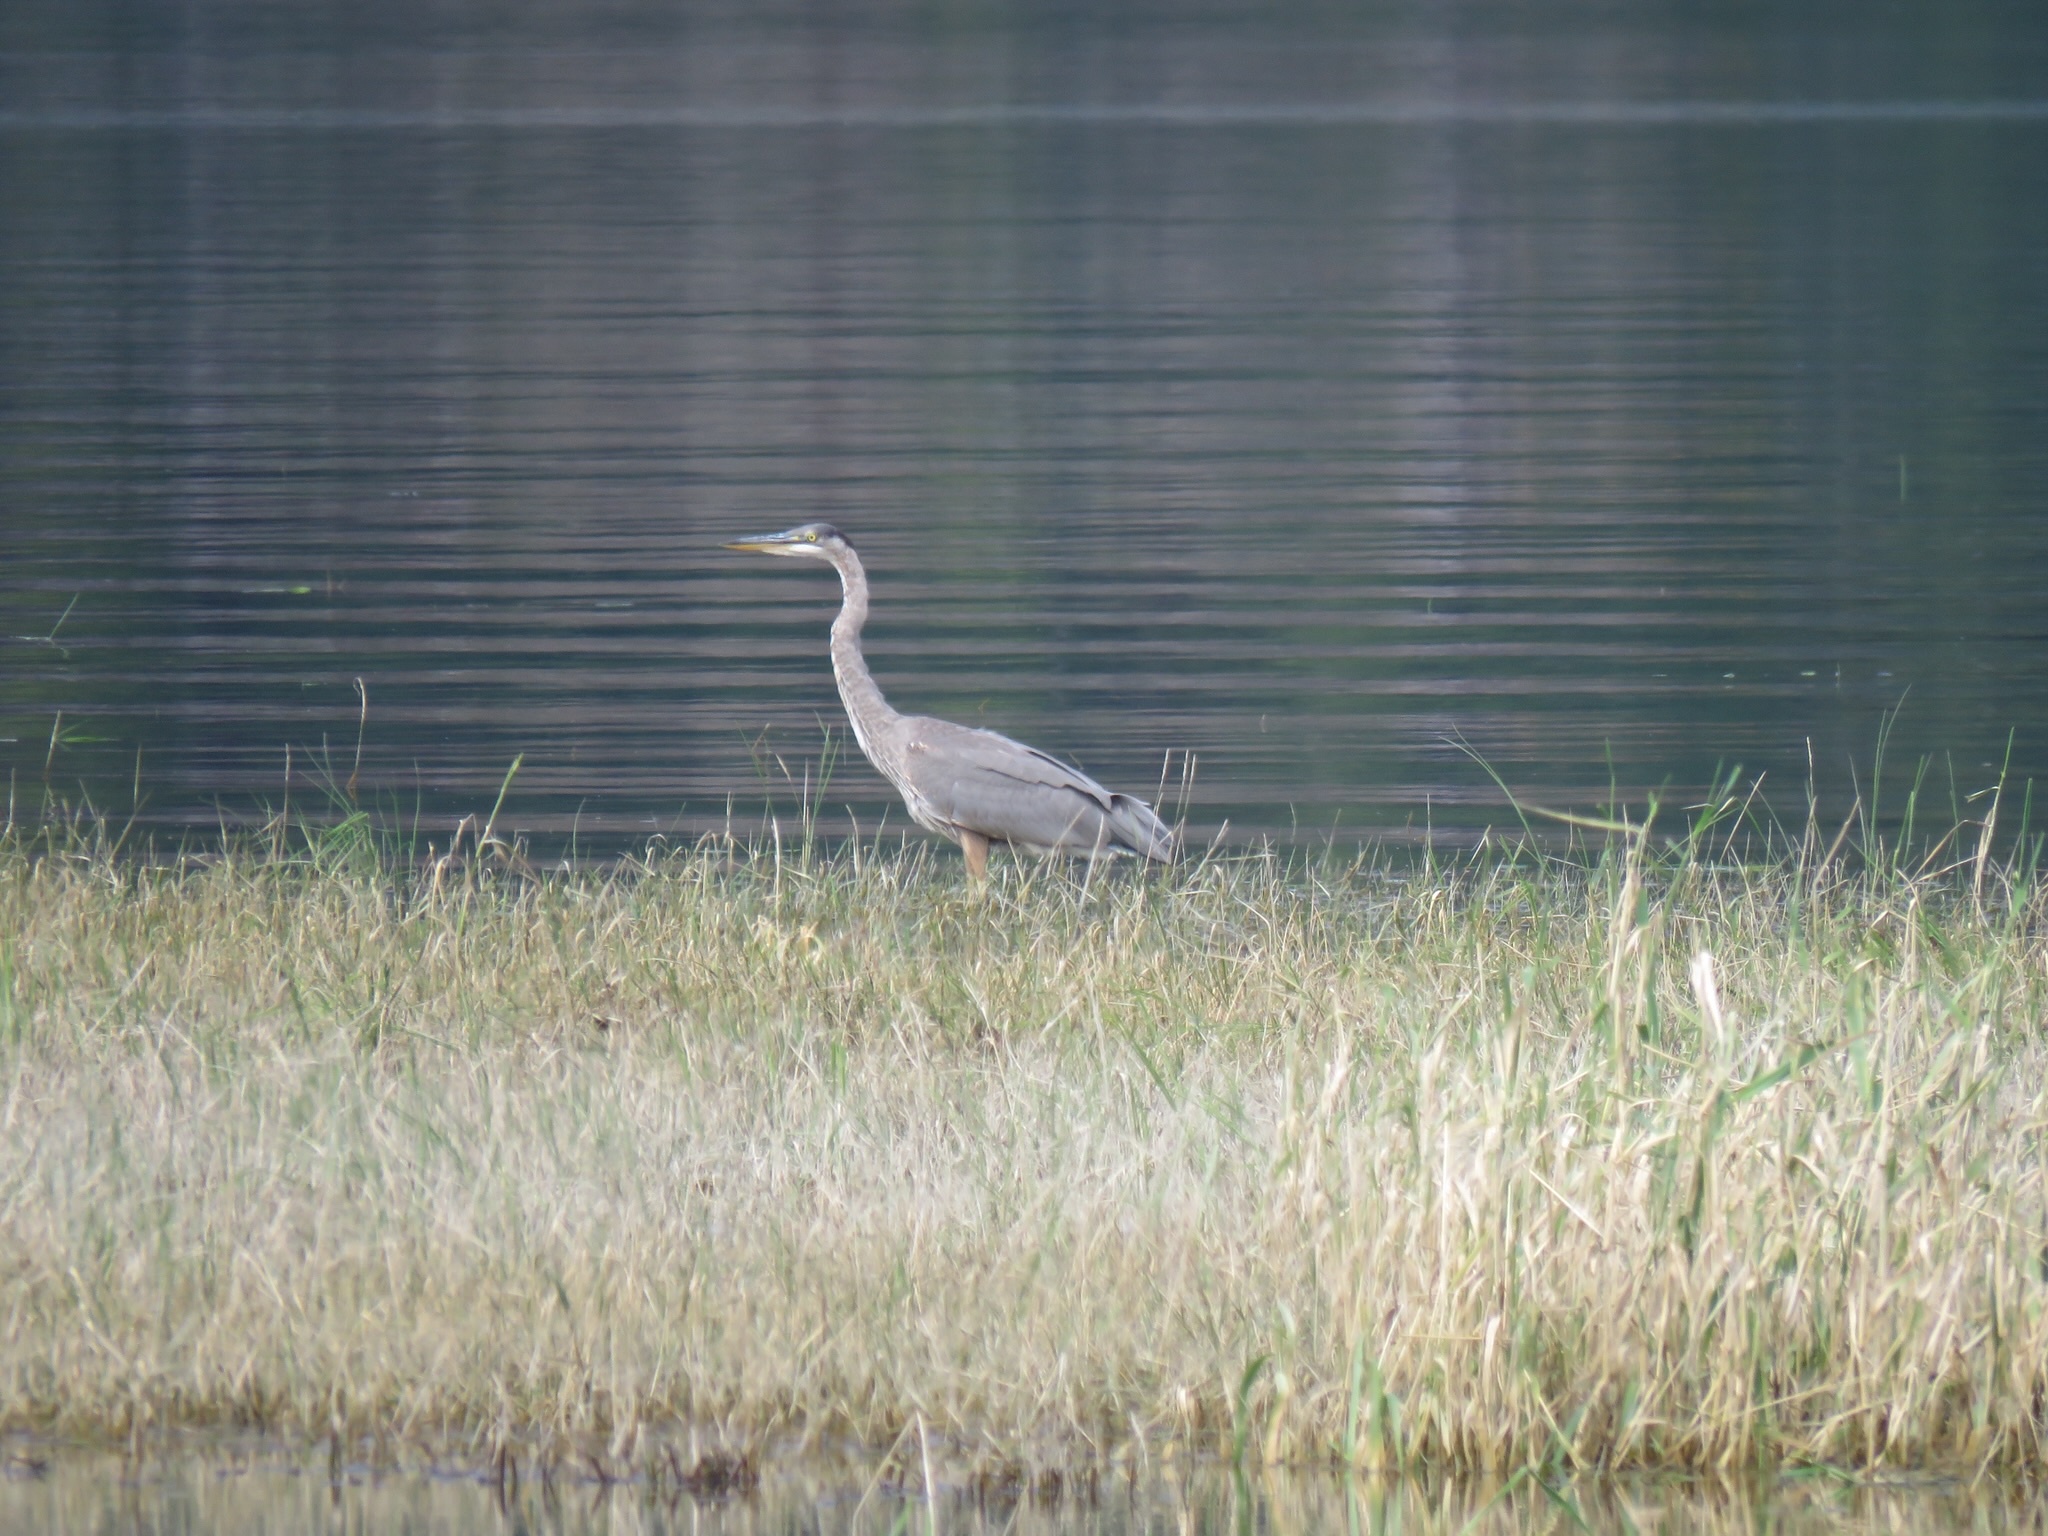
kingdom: Animalia
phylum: Chordata
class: Aves
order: Pelecaniformes
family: Ardeidae
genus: Ardea
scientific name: Ardea herodias
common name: Great blue heron
